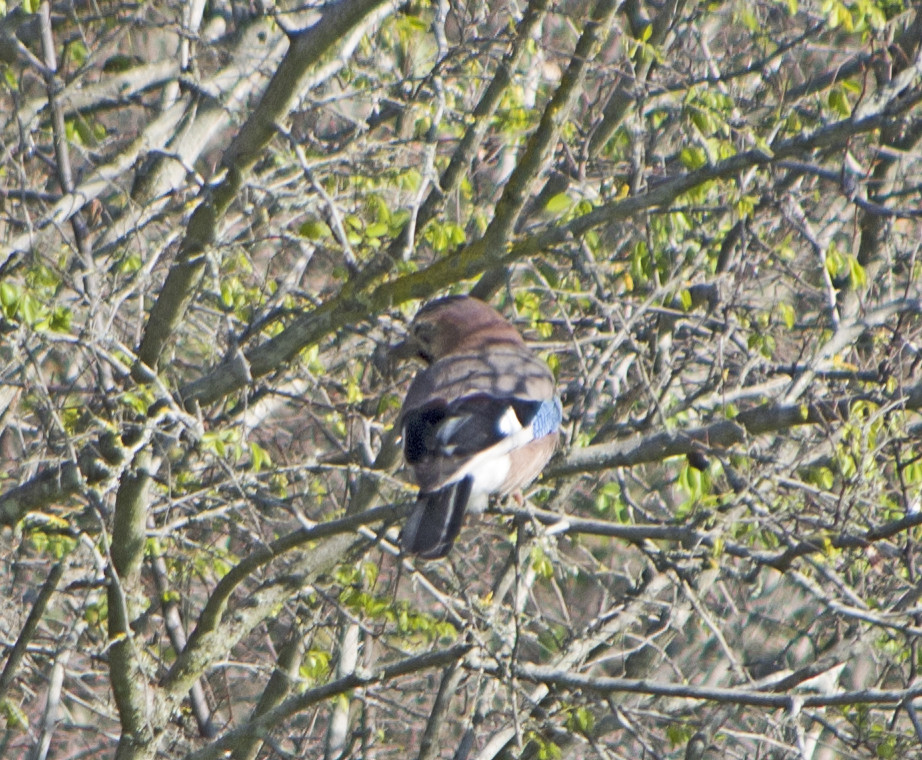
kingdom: Animalia
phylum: Chordata
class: Aves
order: Passeriformes
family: Corvidae
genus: Garrulus
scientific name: Garrulus glandarius
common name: Eurasian jay
